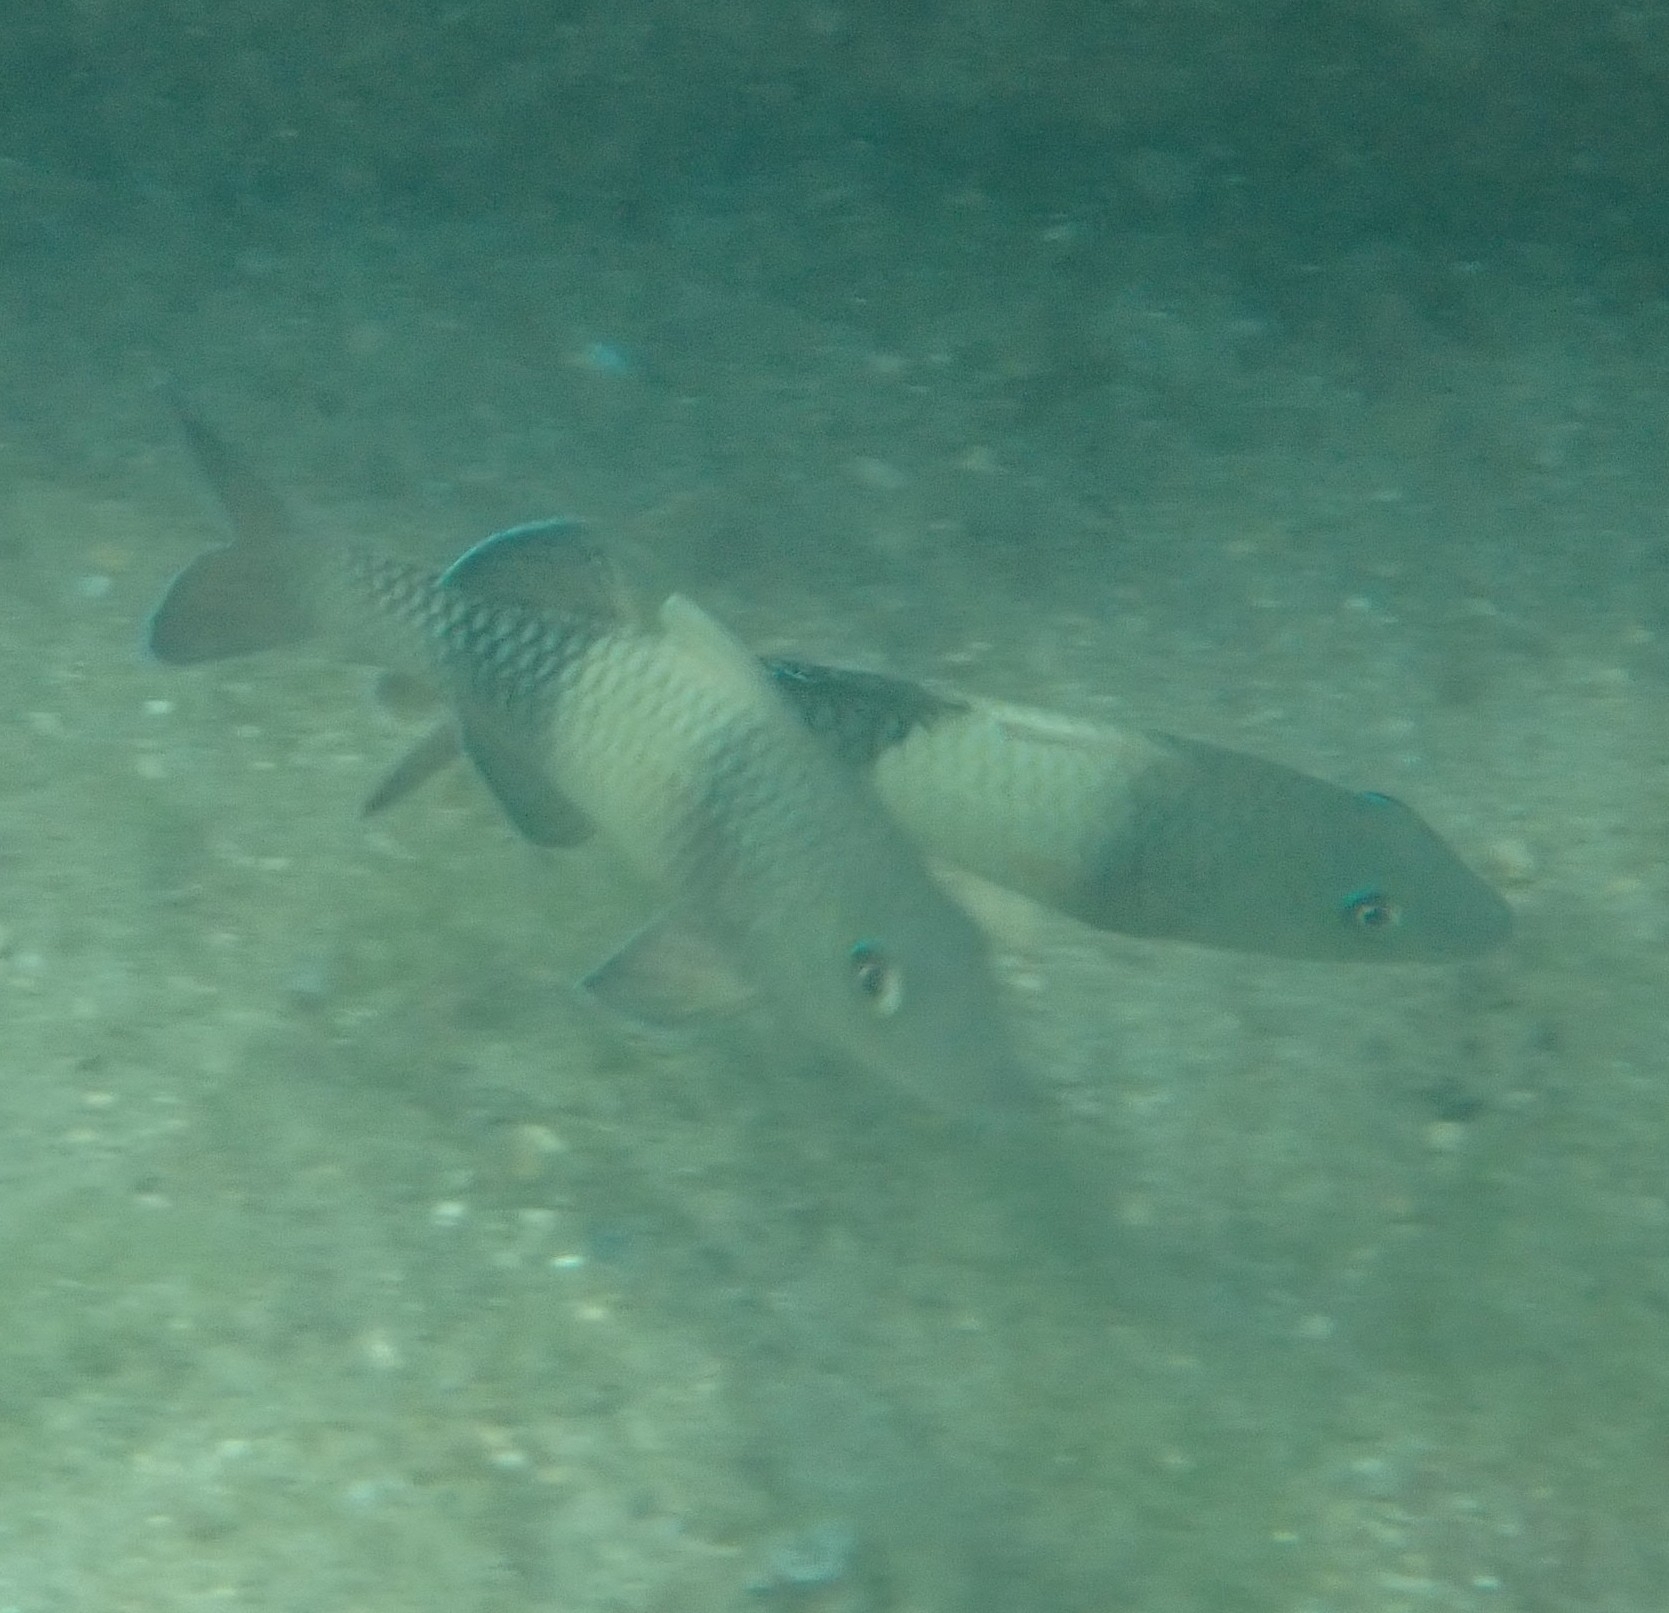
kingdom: Animalia
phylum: Chordata
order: Perciformes
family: Mullidae
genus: Parupeneus
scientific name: Parupeneus insularis
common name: Doublebar goatfish
